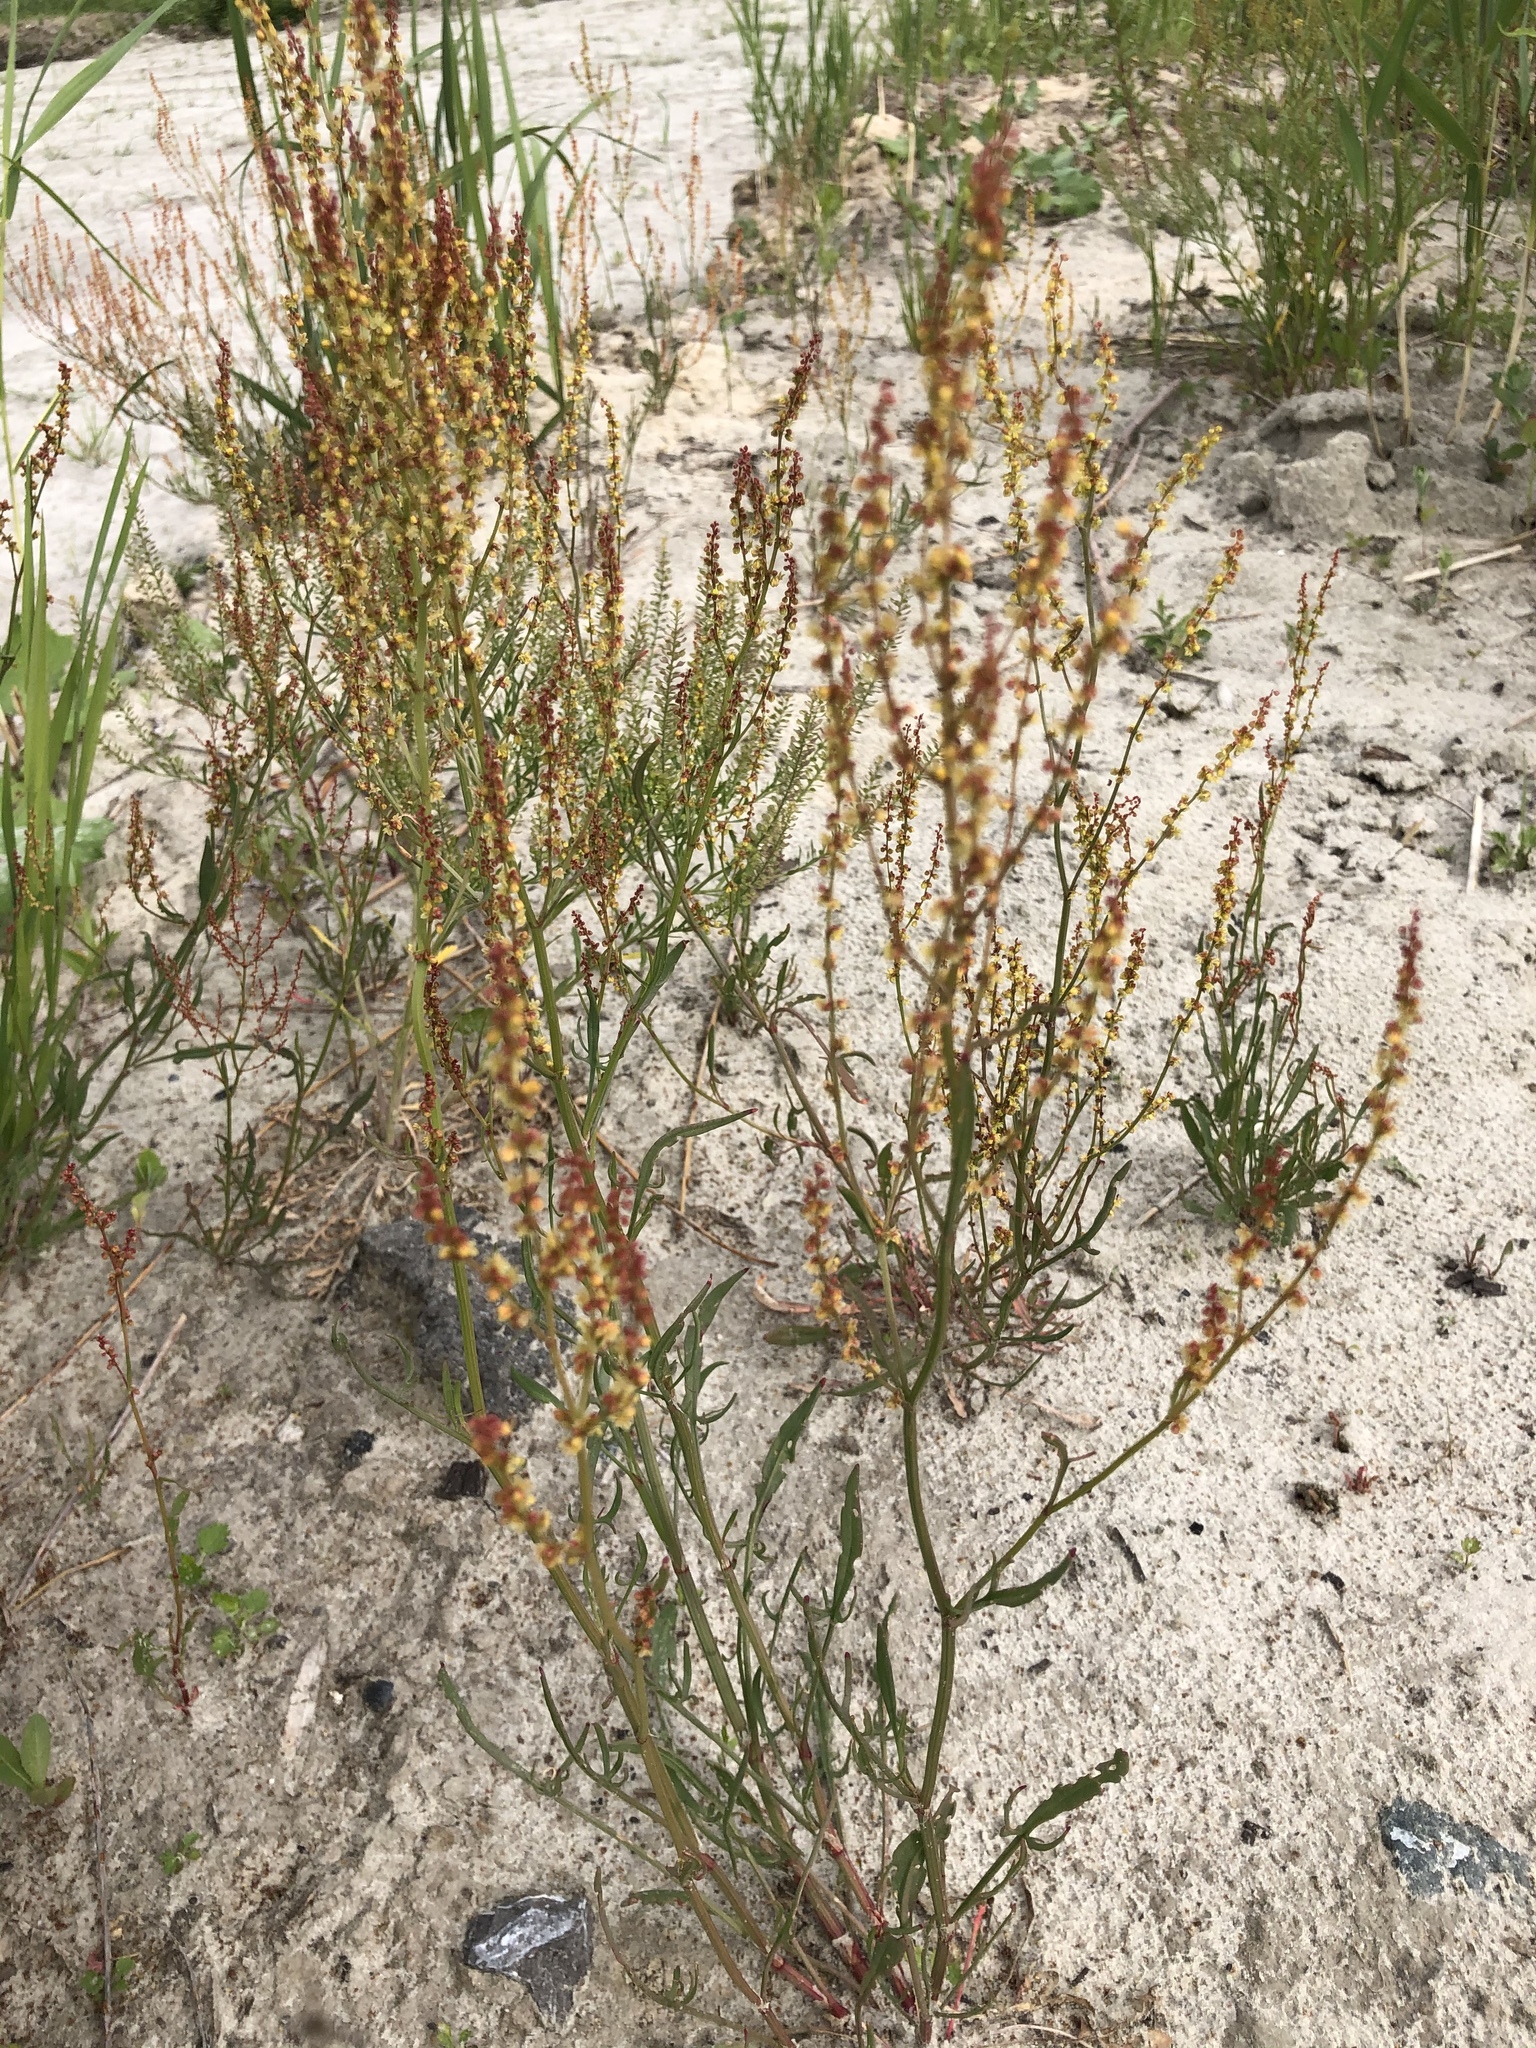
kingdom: Plantae
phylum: Tracheophyta
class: Magnoliopsida
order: Caryophyllales
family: Polygonaceae
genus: Rumex
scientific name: Rumex acetosella
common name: Common sheep sorrel
